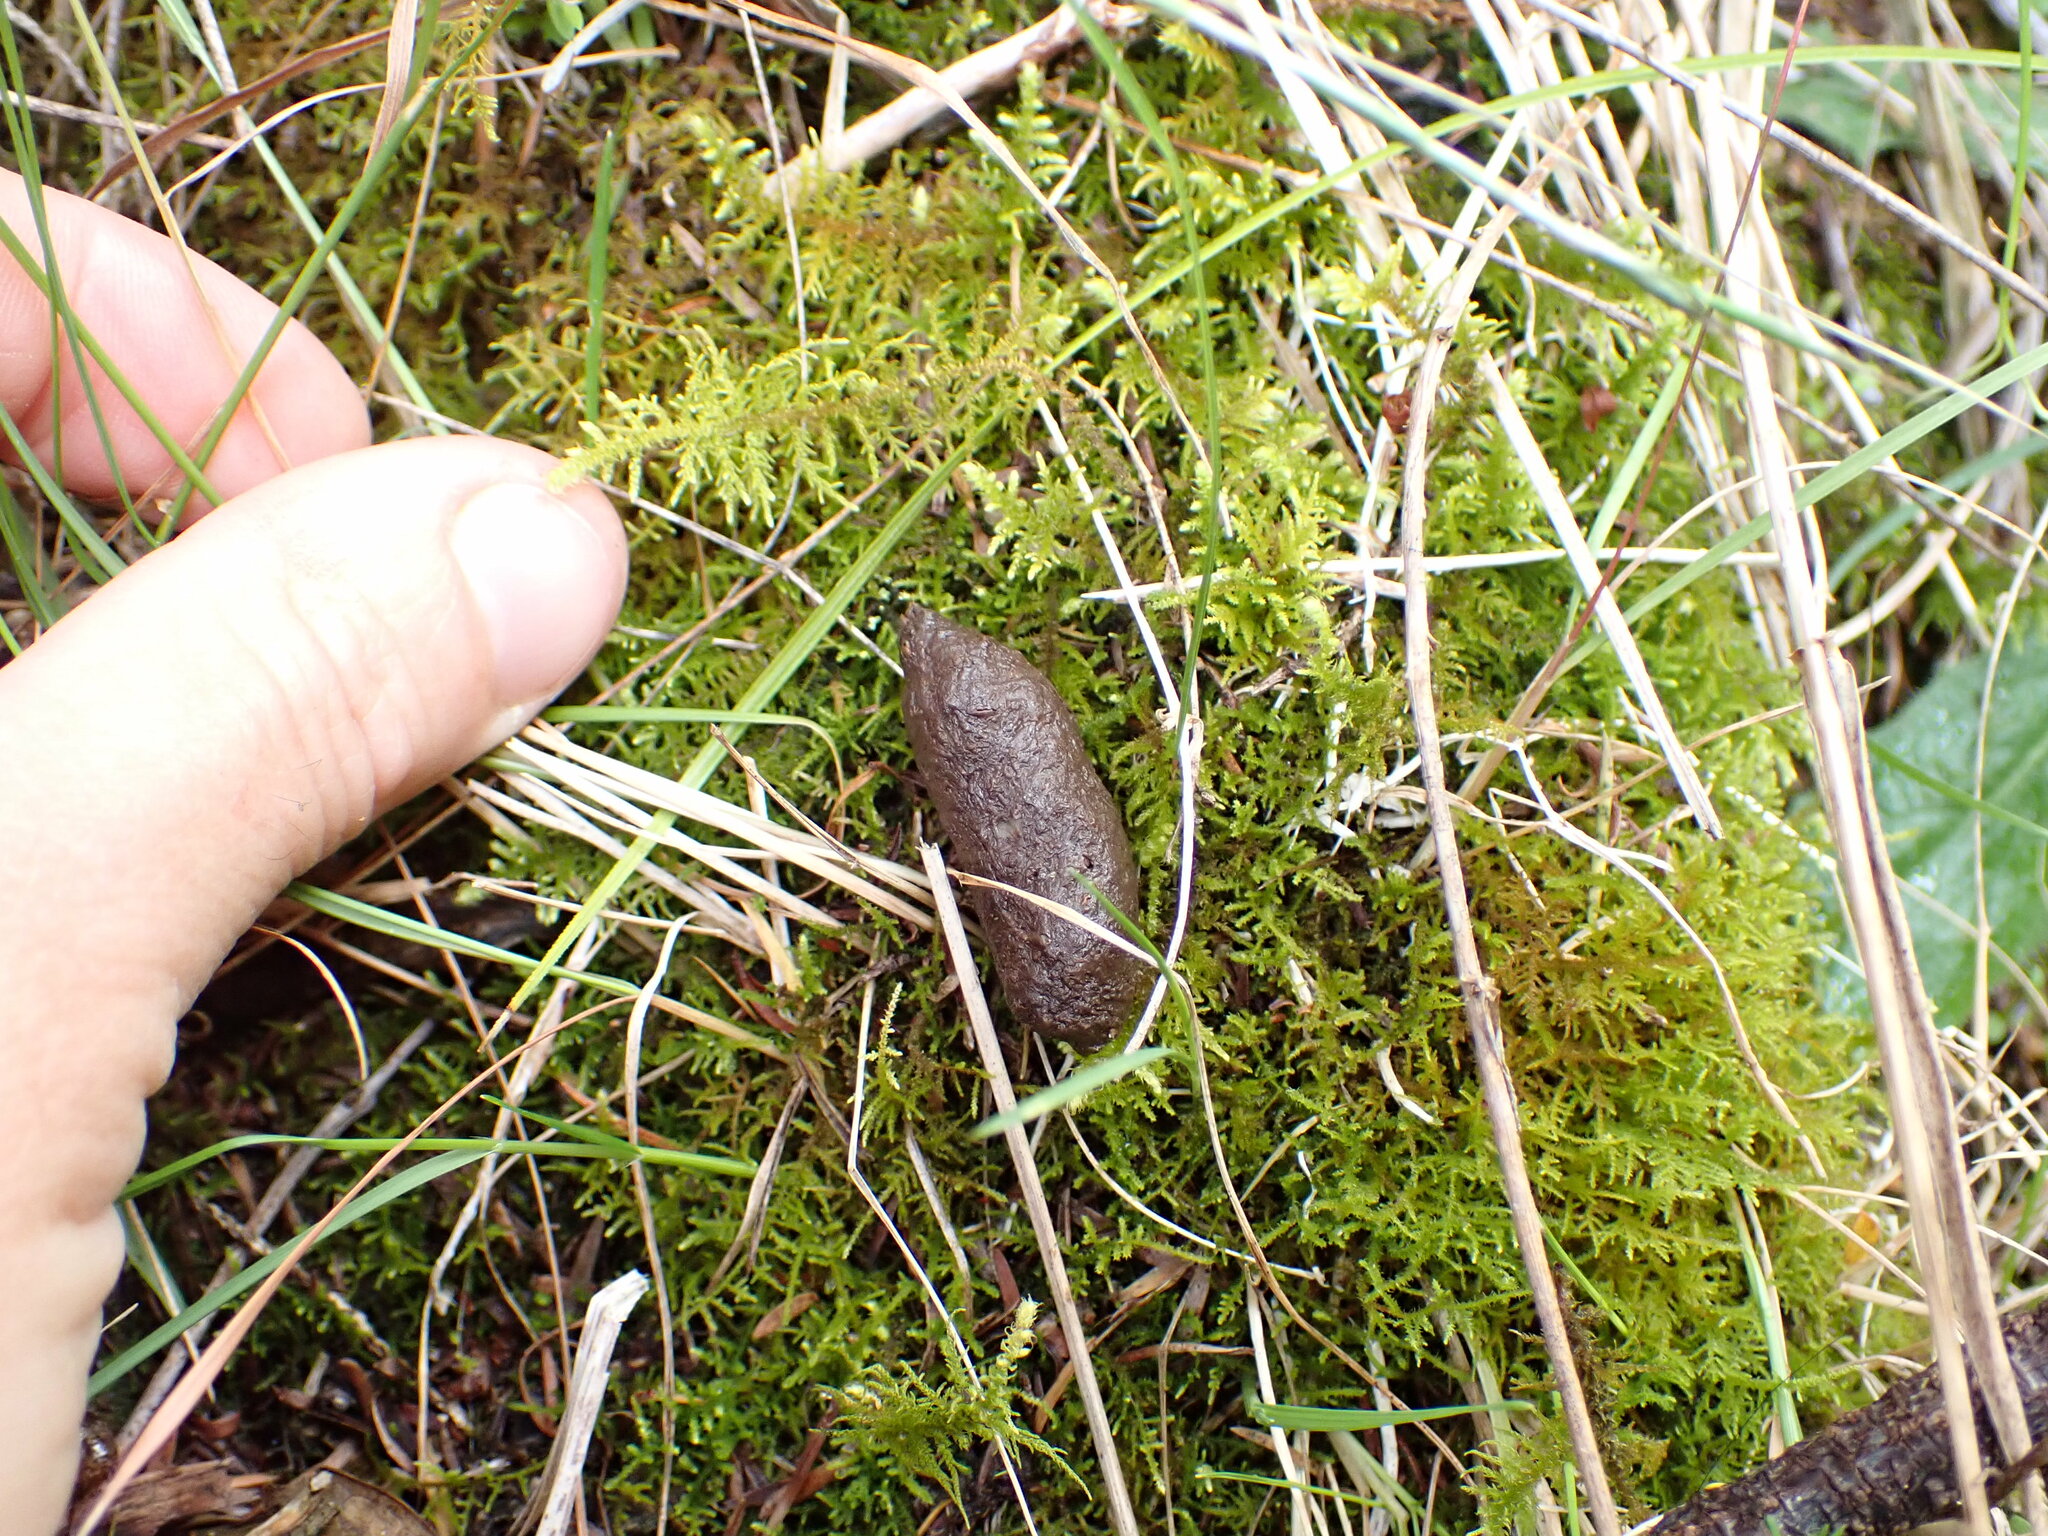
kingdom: Animalia
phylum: Chordata
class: Mammalia
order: Diprotodontia
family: Phalangeridae
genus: Trichosurus
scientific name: Trichosurus vulpecula
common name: Common brushtail
